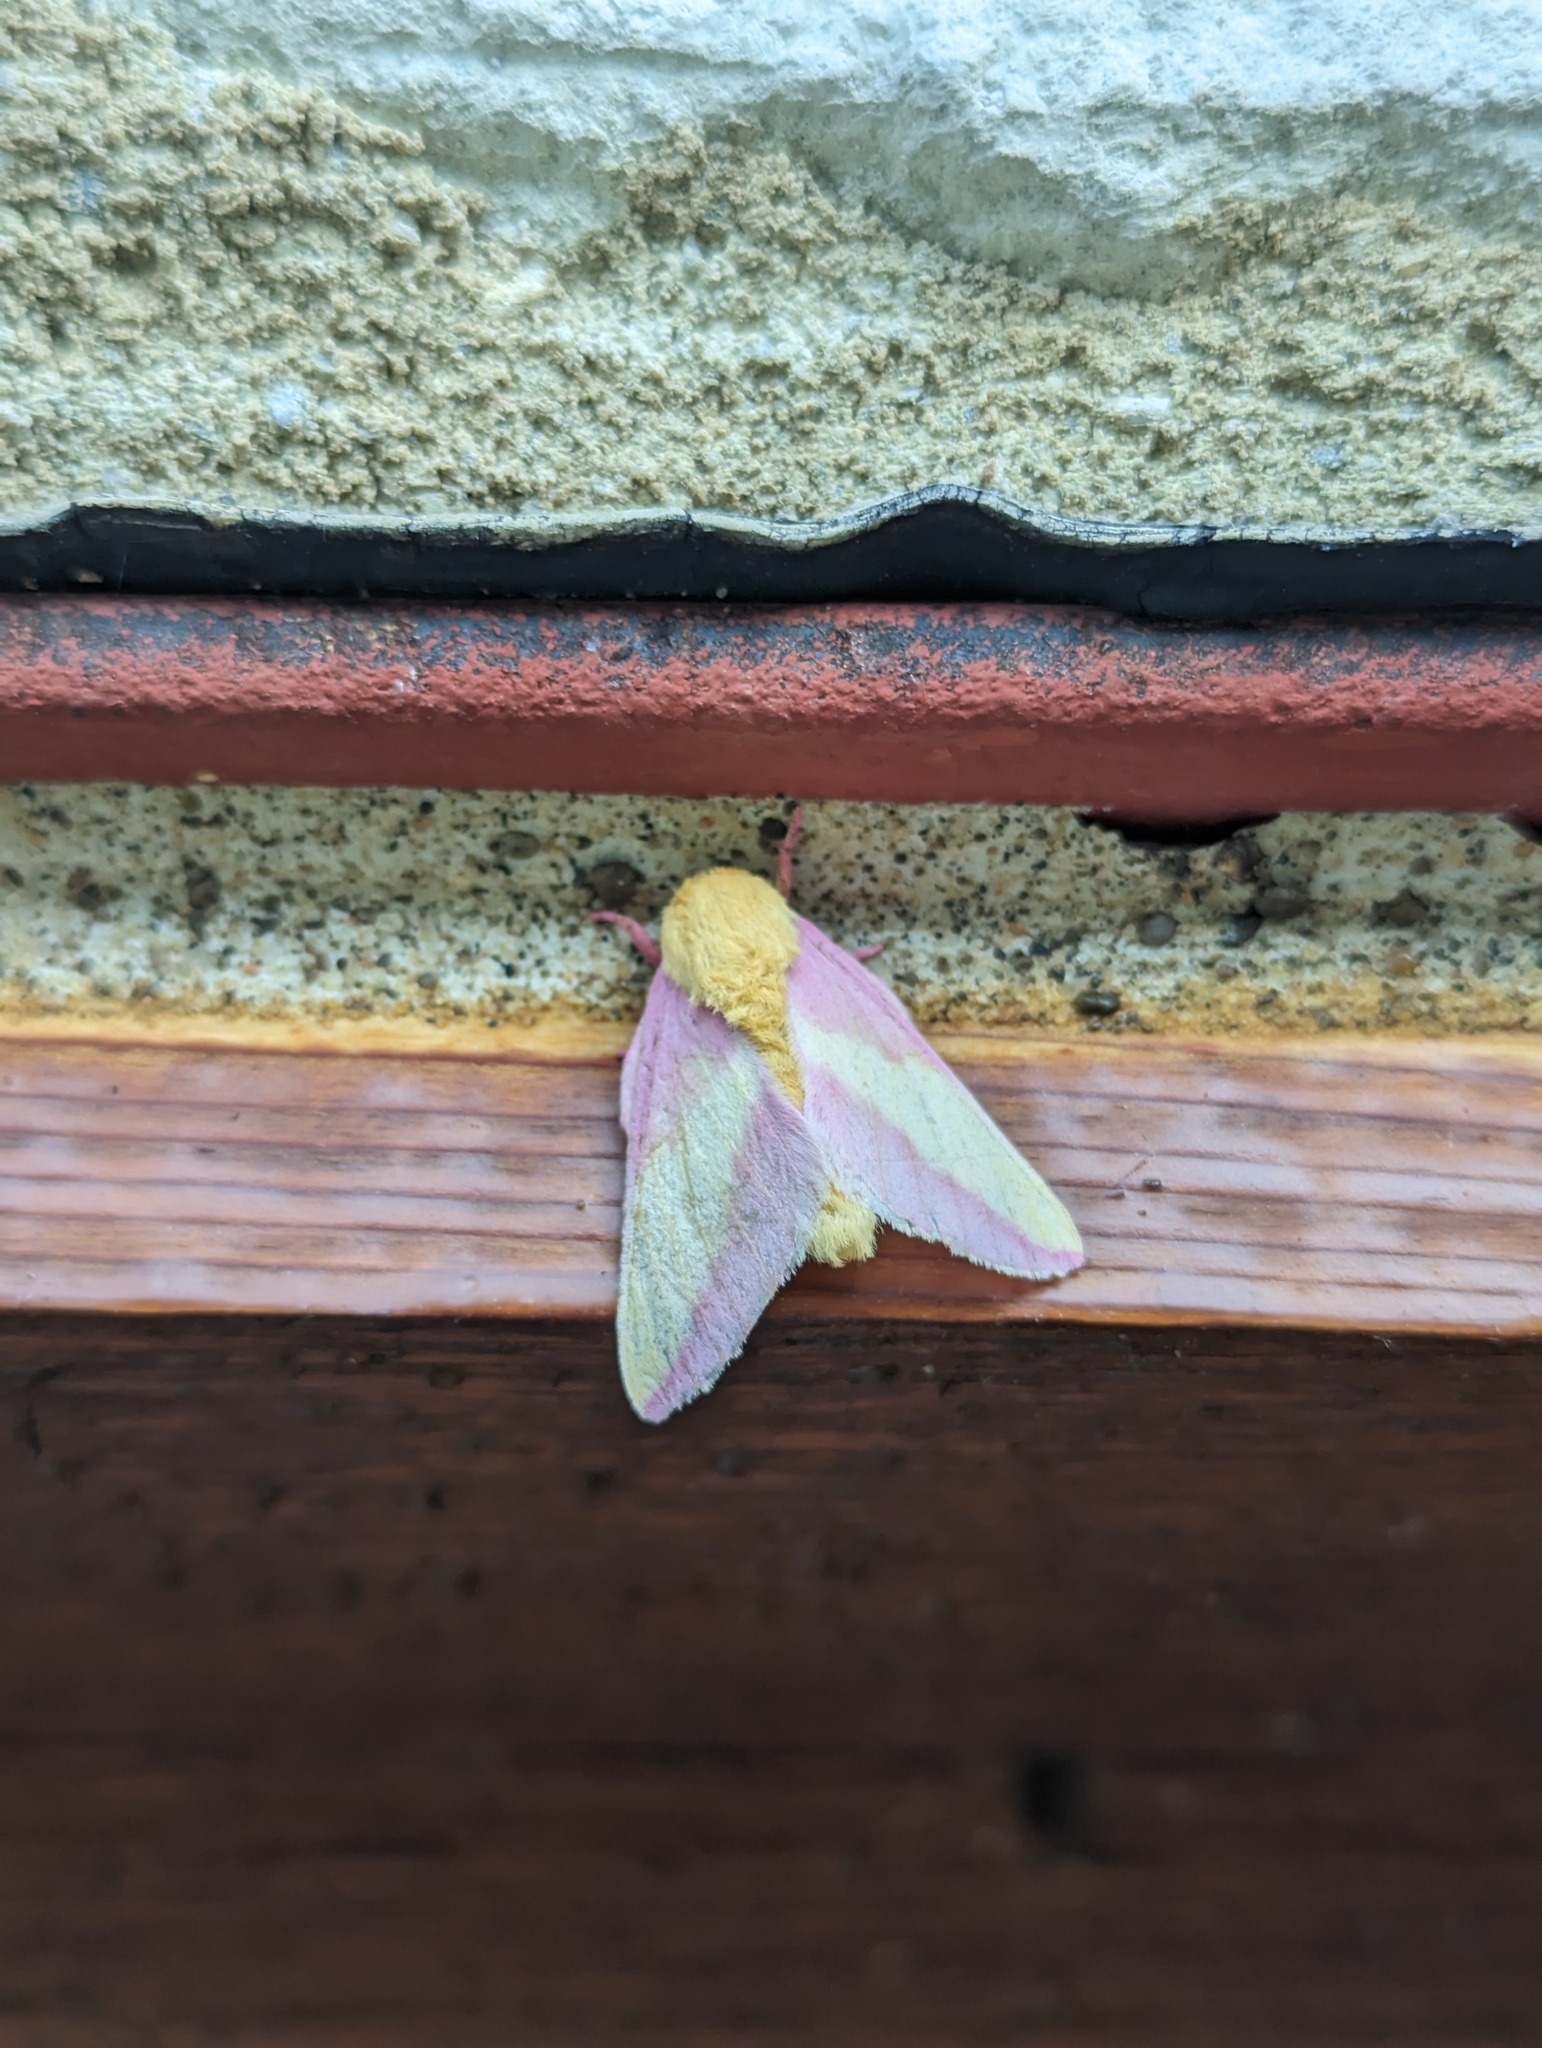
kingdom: Animalia
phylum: Arthropoda
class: Insecta
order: Lepidoptera
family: Saturniidae
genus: Dryocampa
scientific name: Dryocampa rubicunda
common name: Rosy maple moth
